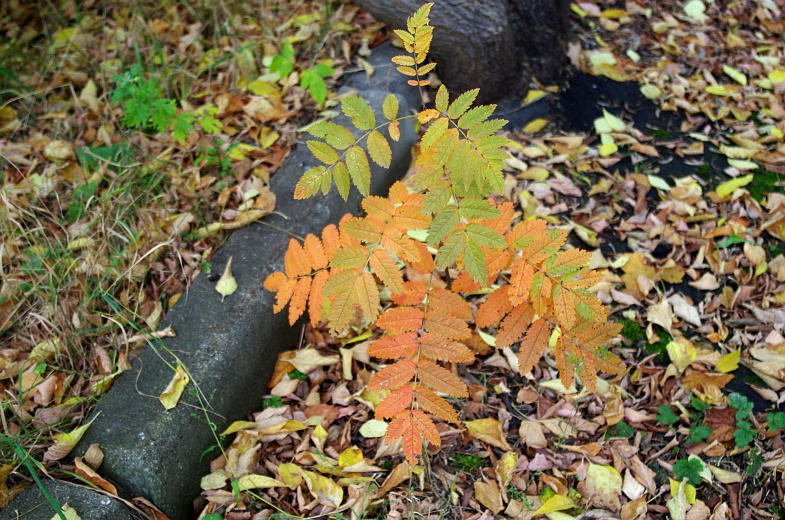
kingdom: Plantae
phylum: Tracheophyta
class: Magnoliopsida
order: Rosales
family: Rosaceae
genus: Sorbus
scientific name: Sorbus aucuparia
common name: Rowan
